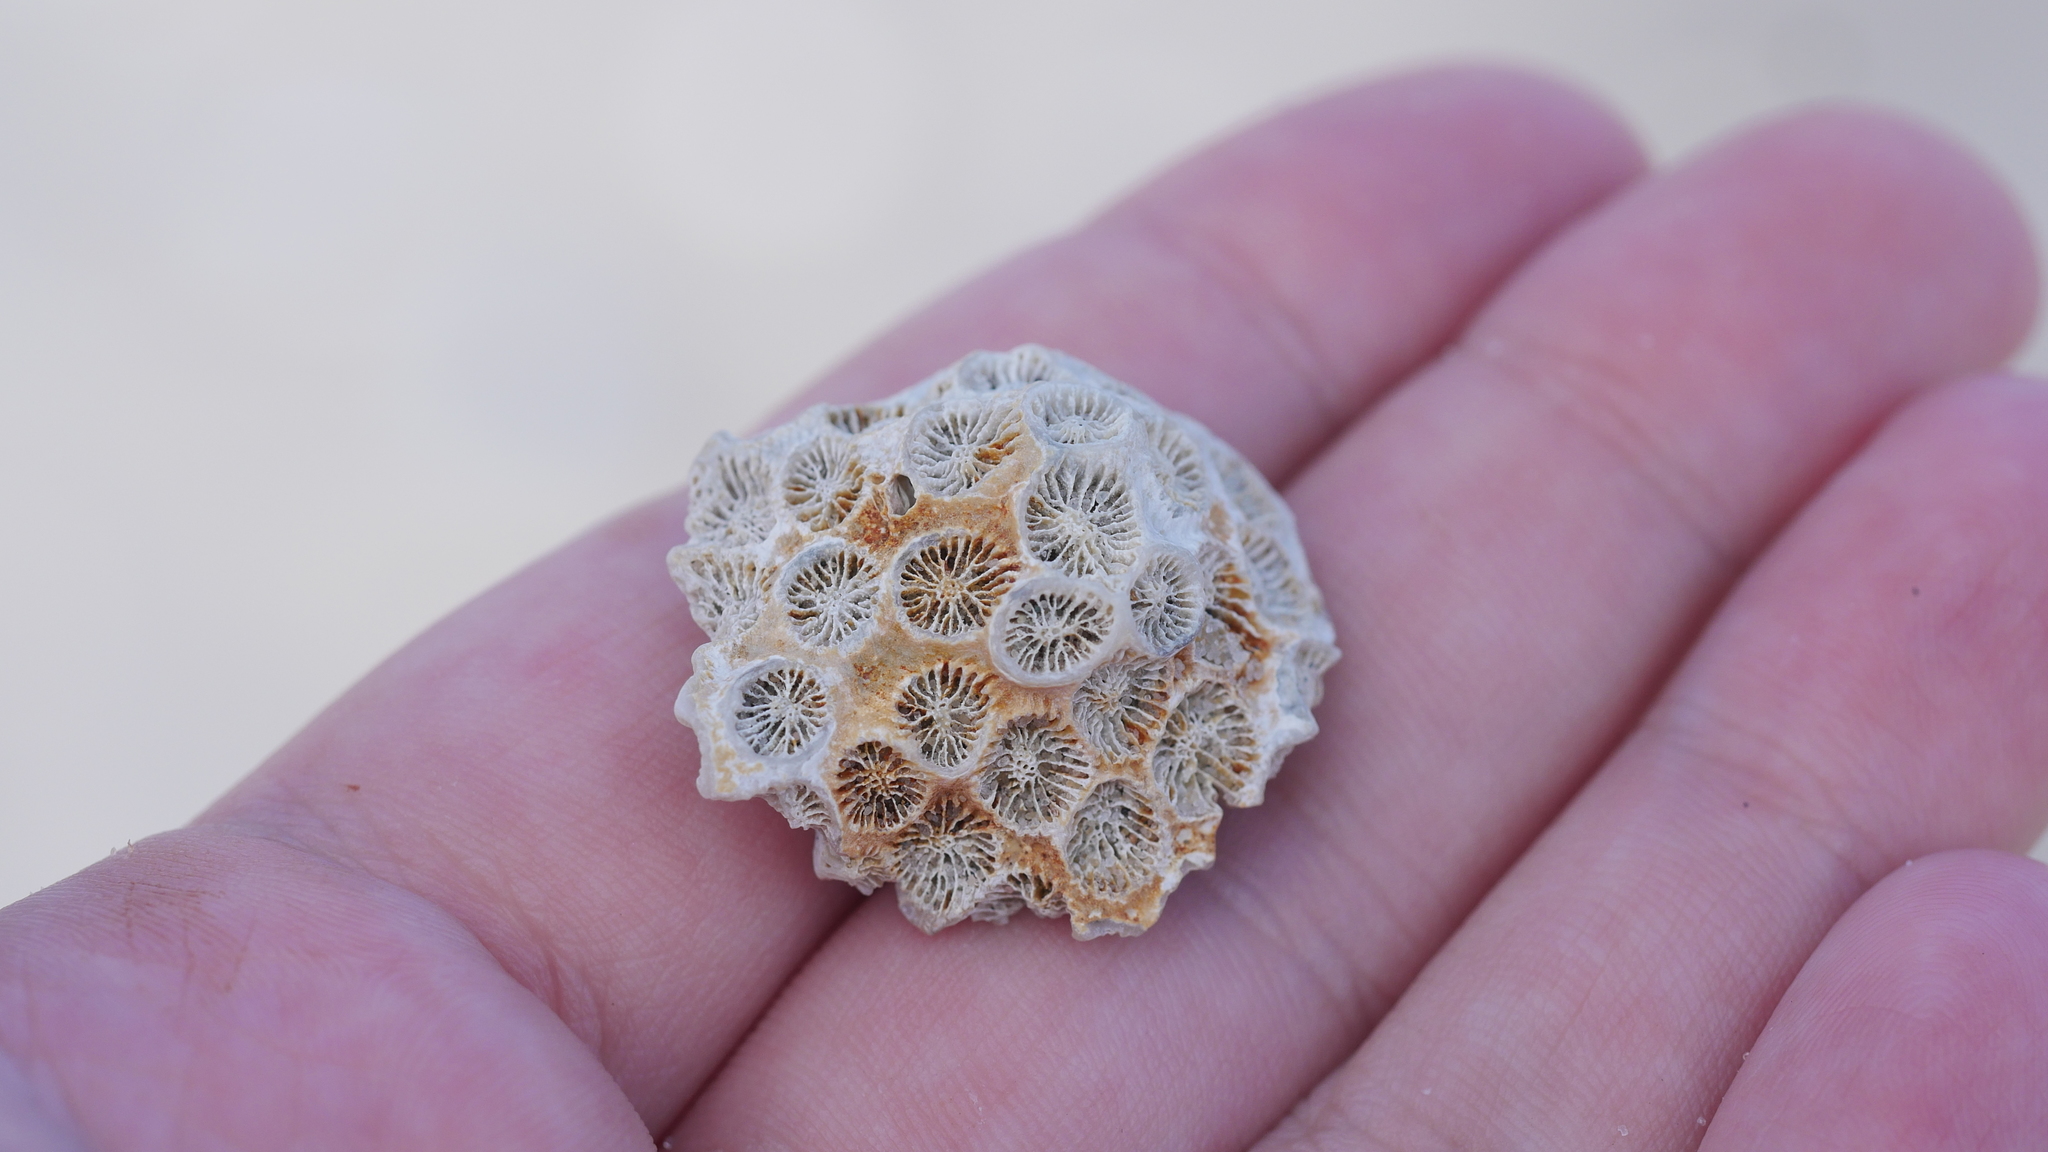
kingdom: Animalia
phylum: Cnidaria
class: Anthozoa
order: Scleractinia
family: Astrangiidae
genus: Astrangia
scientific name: Astrangia poculata
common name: Northern star coral
